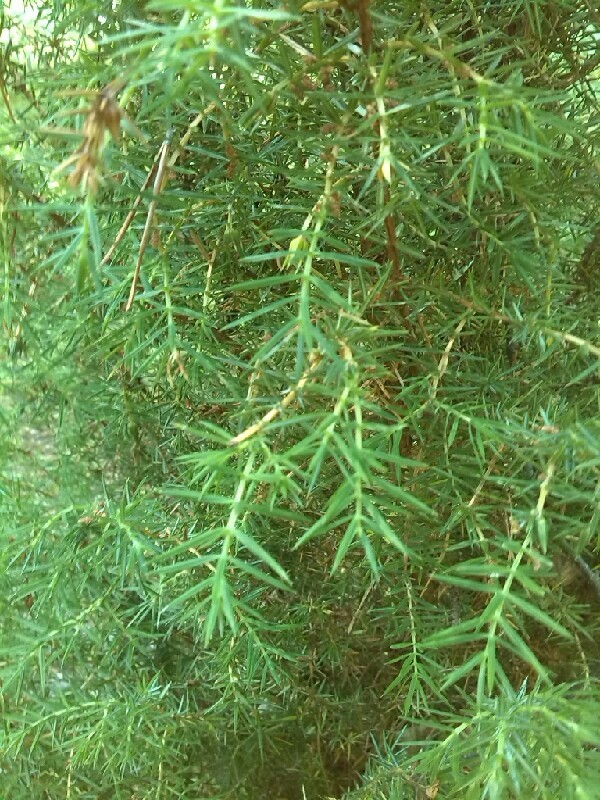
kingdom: Plantae
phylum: Tracheophyta
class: Pinopsida
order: Pinales
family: Cupressaceae
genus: Juniperus
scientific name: Juniperus communis
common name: Common juniper
